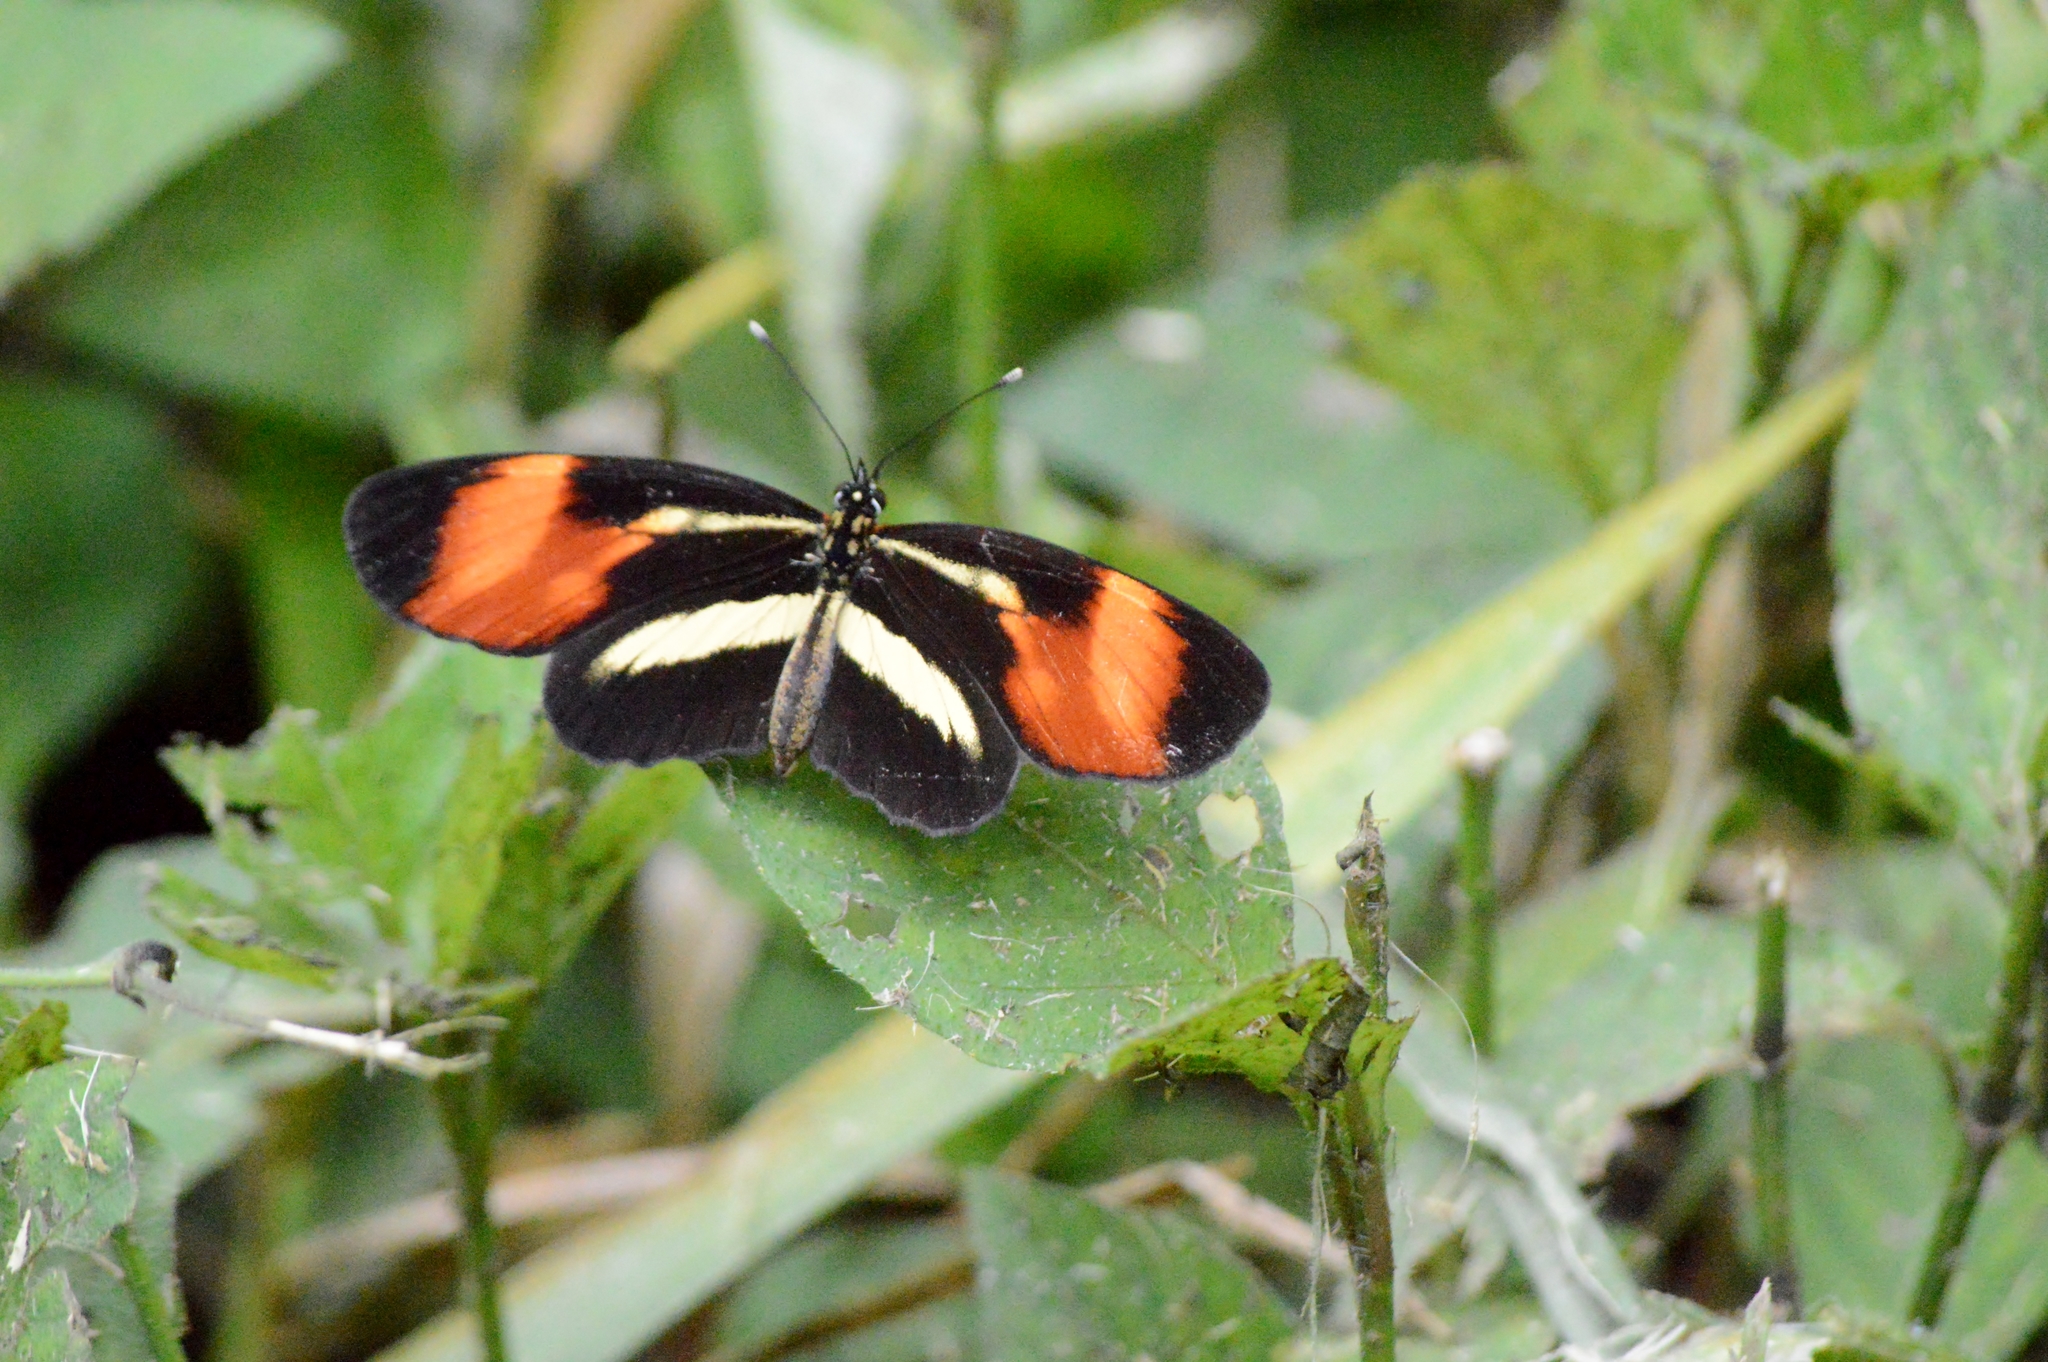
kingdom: Animalia
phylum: Arthropoda
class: Insecta
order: Lepidoptera
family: Nymphalidae
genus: Eresia
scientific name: Eresia lansdorfi
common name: Lansdorf's crescent
